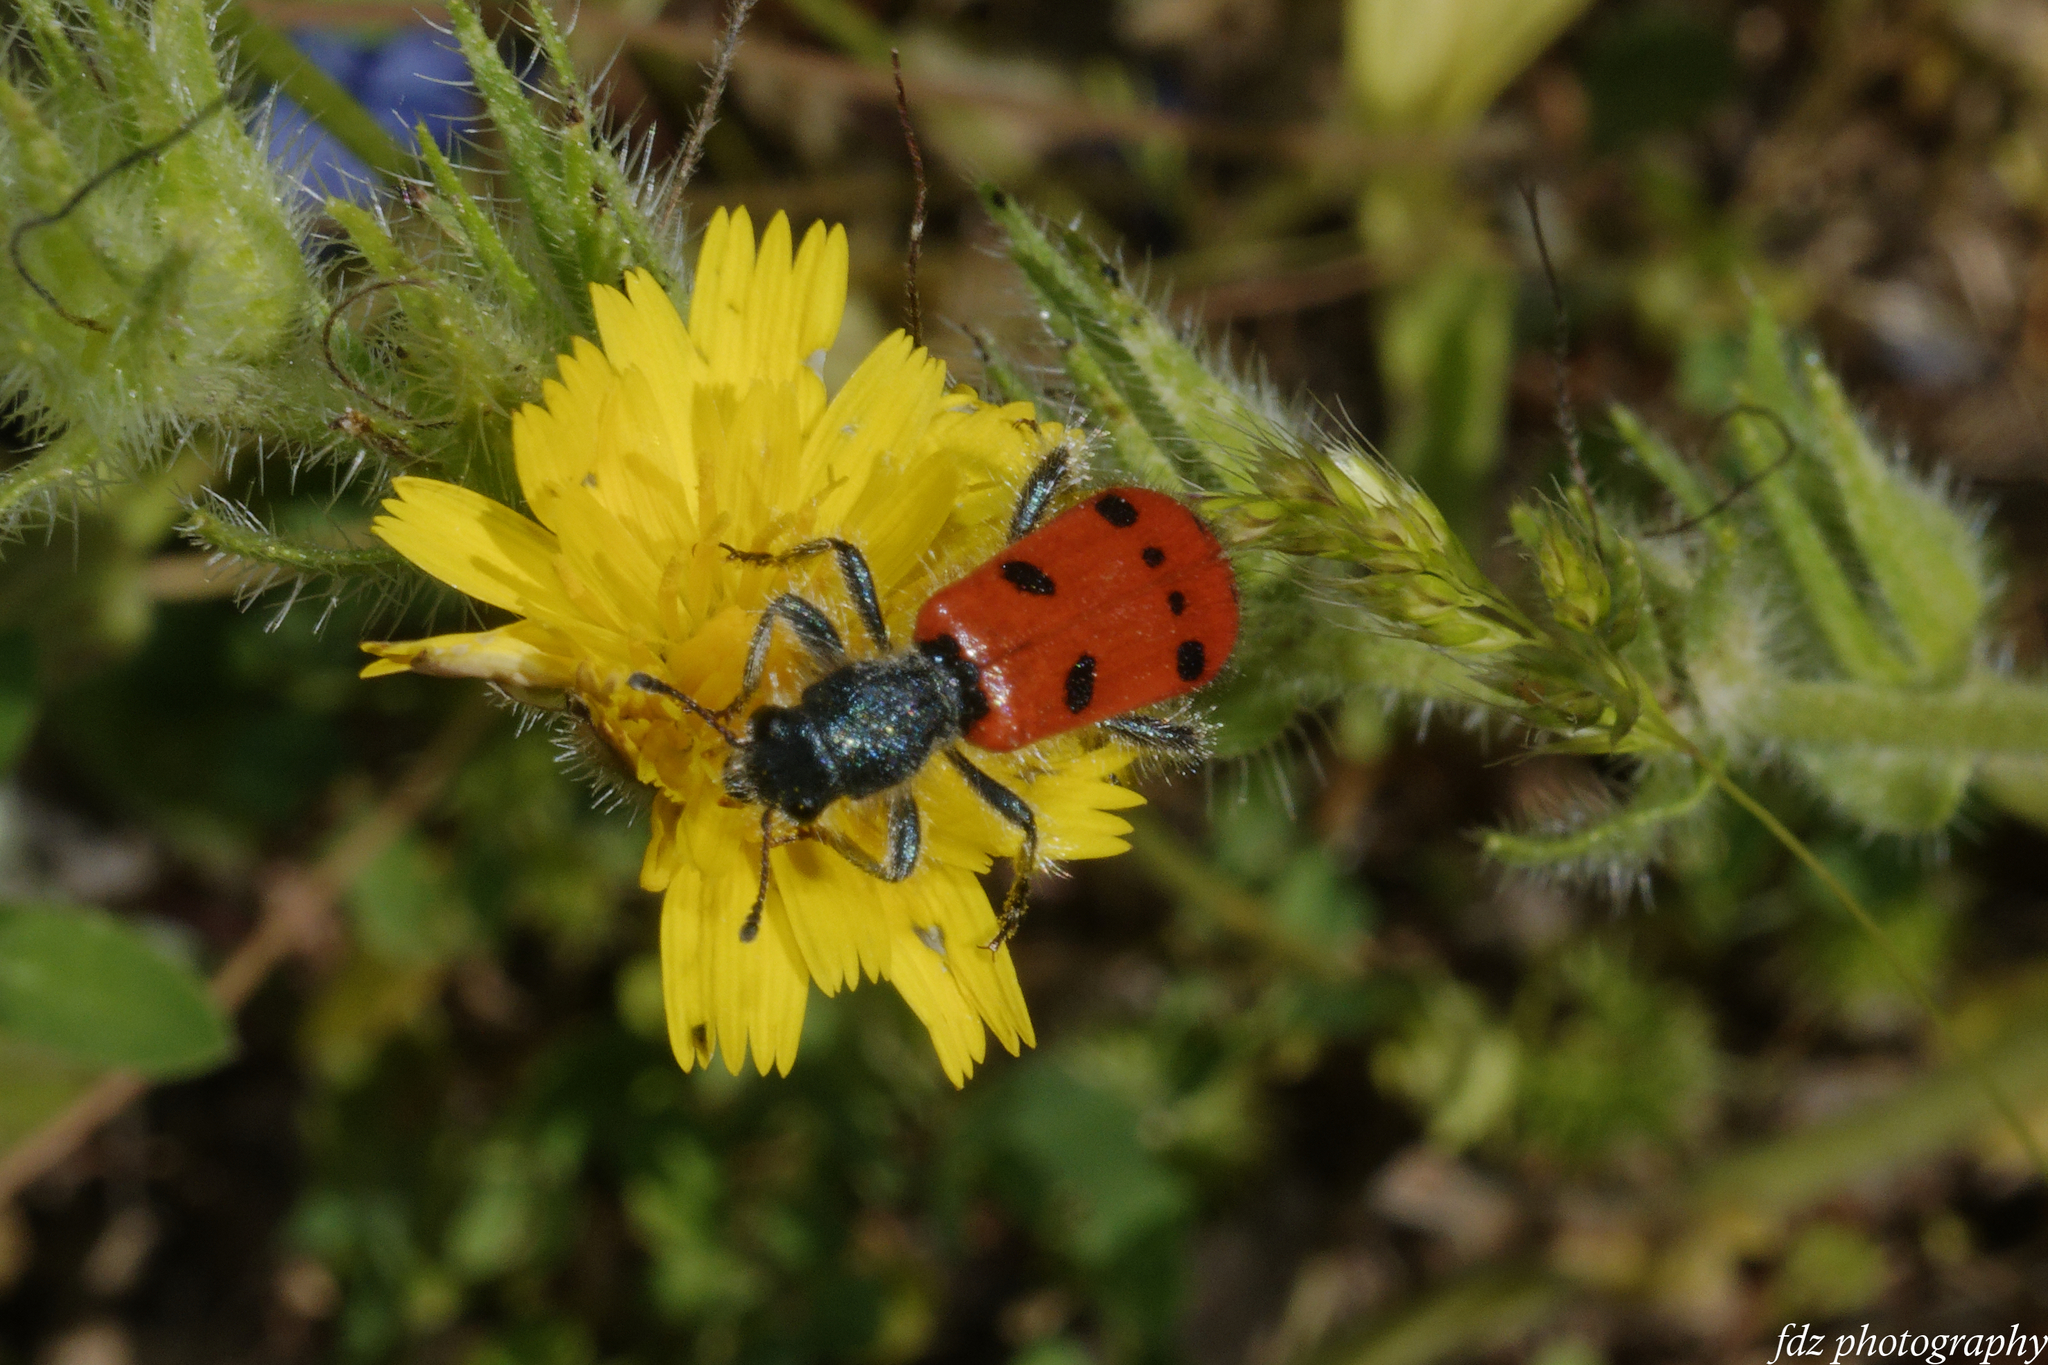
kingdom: Animalia
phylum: Arthropoda
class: Insecta
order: Coleoptera
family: Cleridae
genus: Trichodes
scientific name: Trichodes octopunctatus
